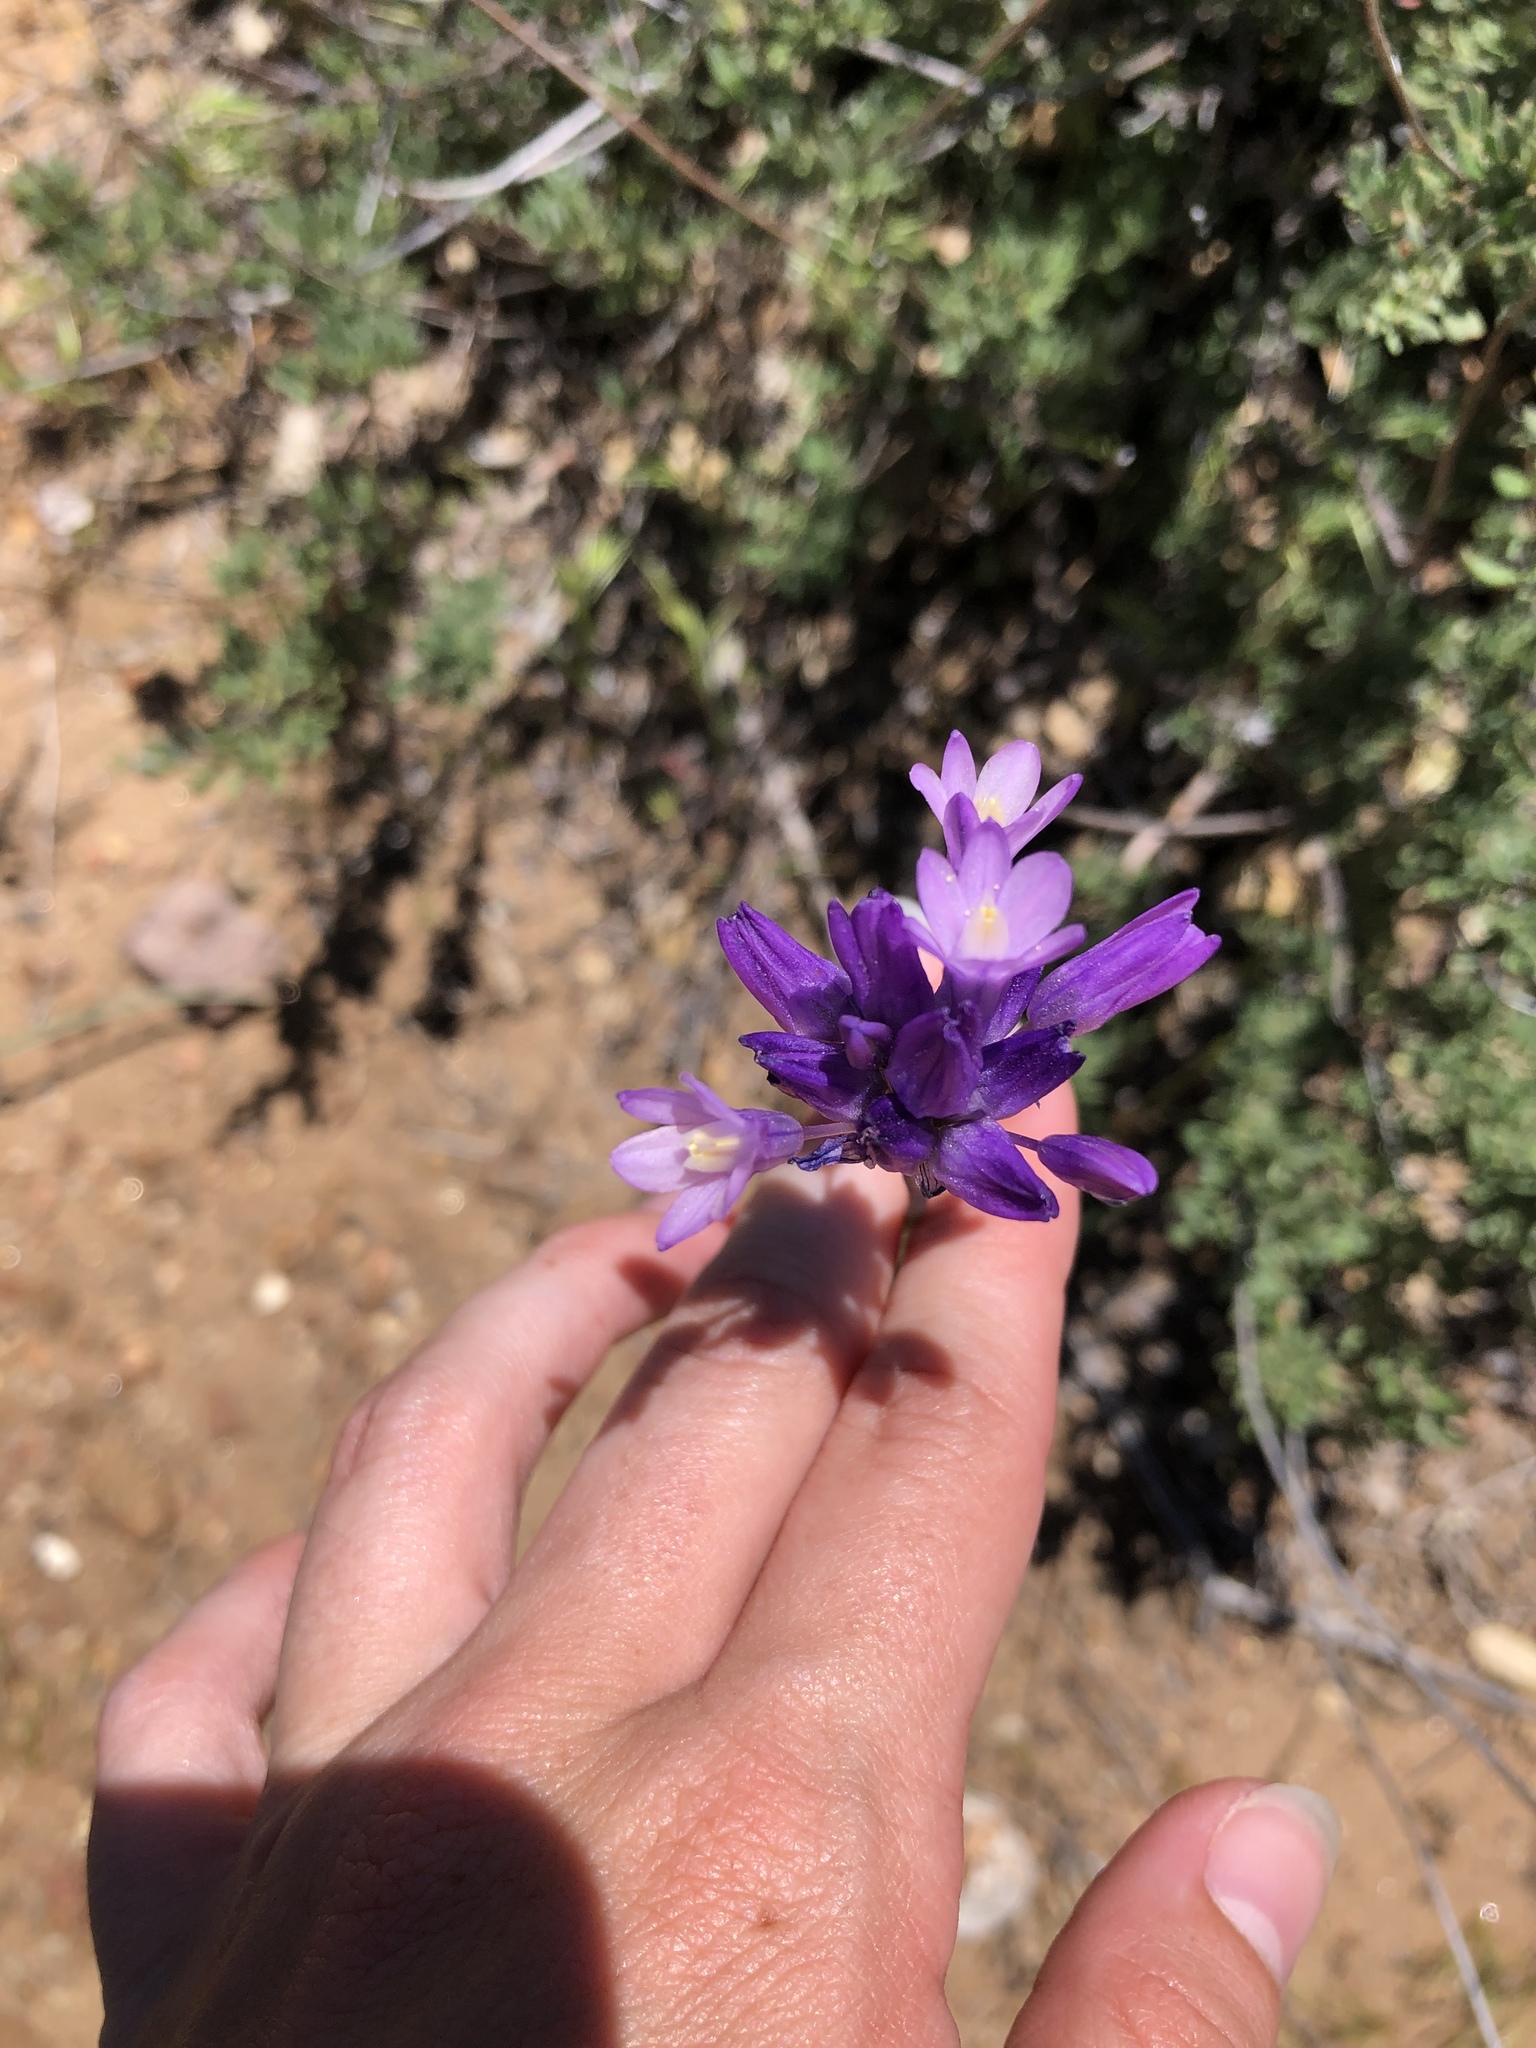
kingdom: Plantae
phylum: Tracheophyta
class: Liliopsida
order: Asparagales
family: Asparagaceae
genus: Dipterostemon
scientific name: Dipterostemon capitatus
